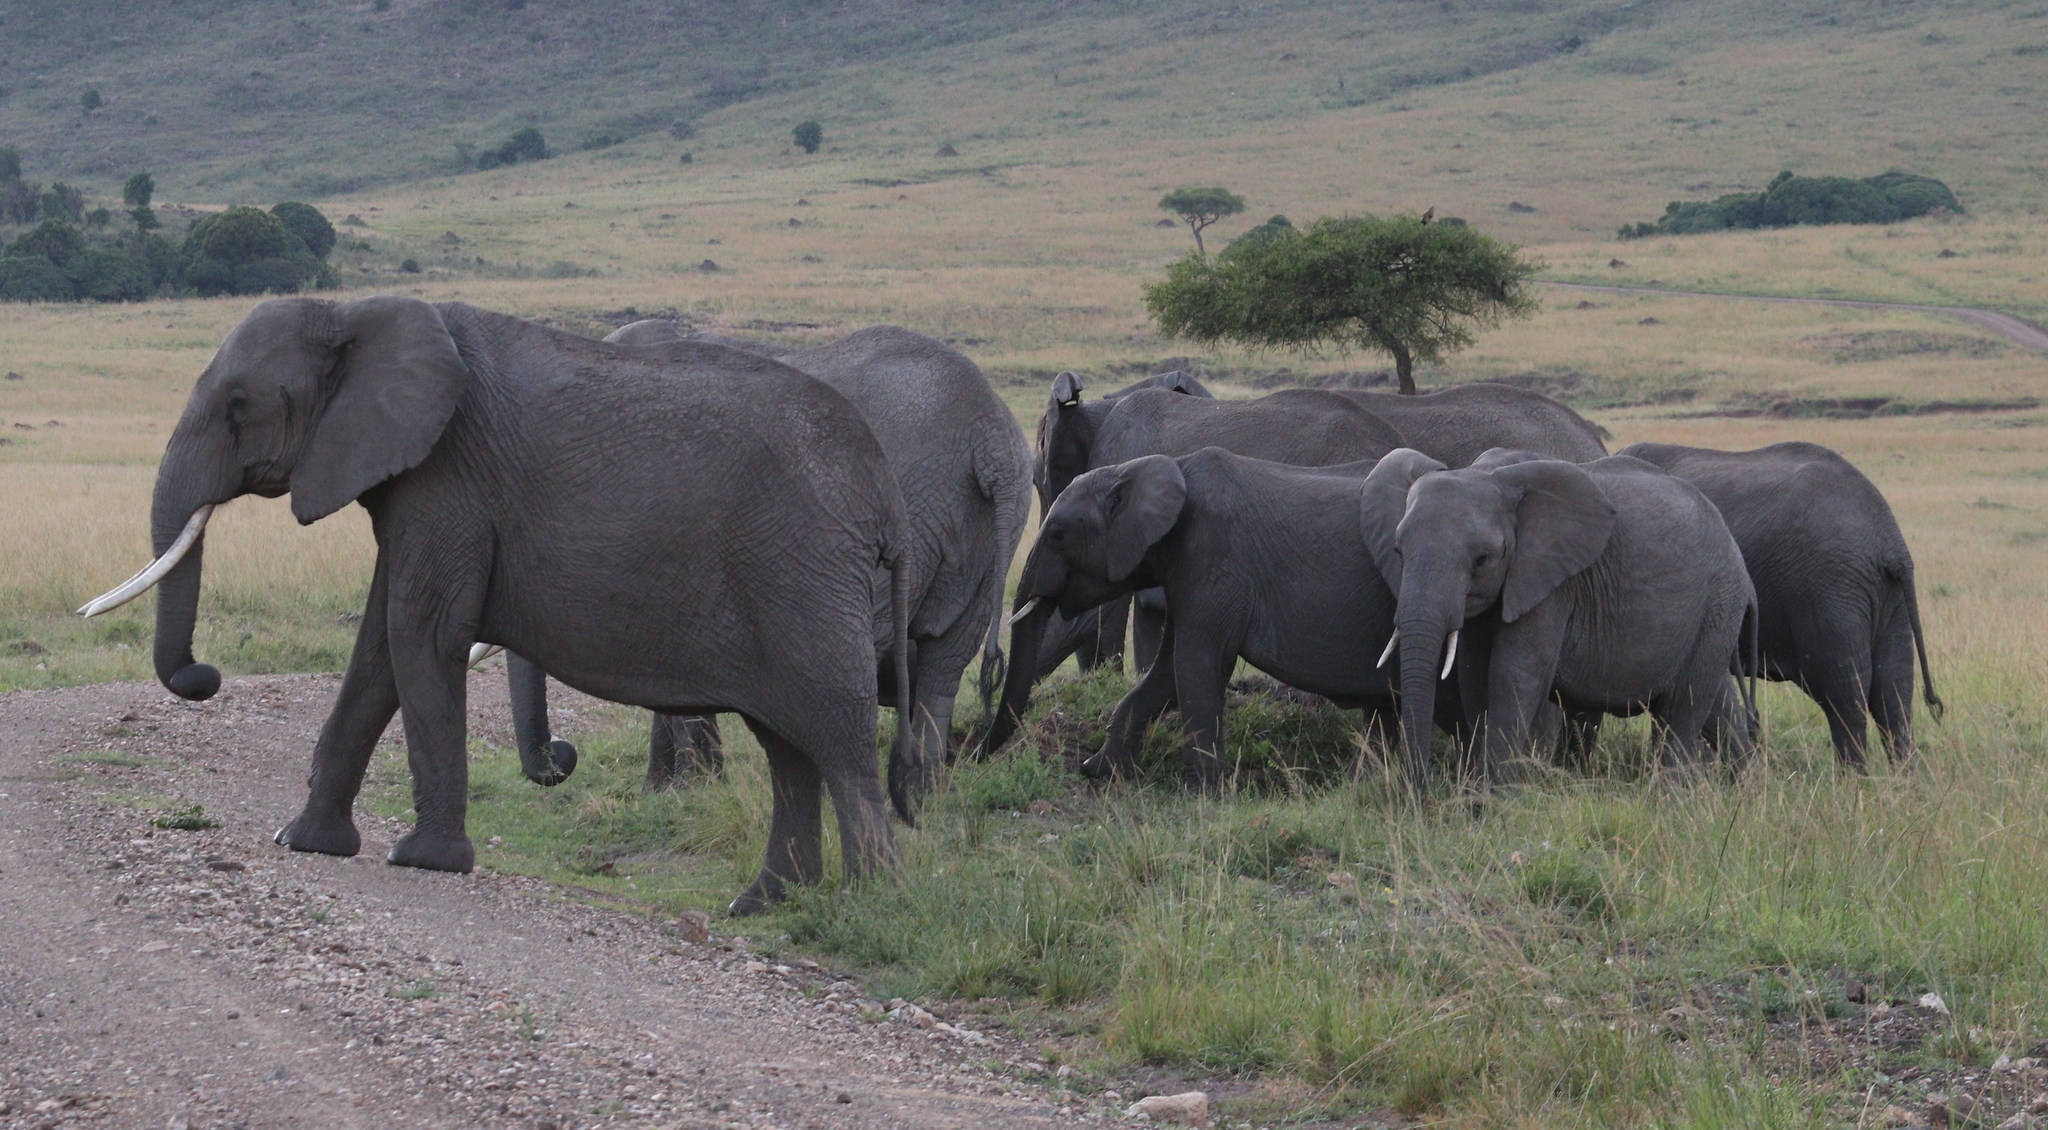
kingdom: Animalia
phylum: Chordata
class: Mammalia
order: Proboscidea
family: Elephantidae
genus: Loxodonta
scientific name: Loxodonta africana
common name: African elephant
